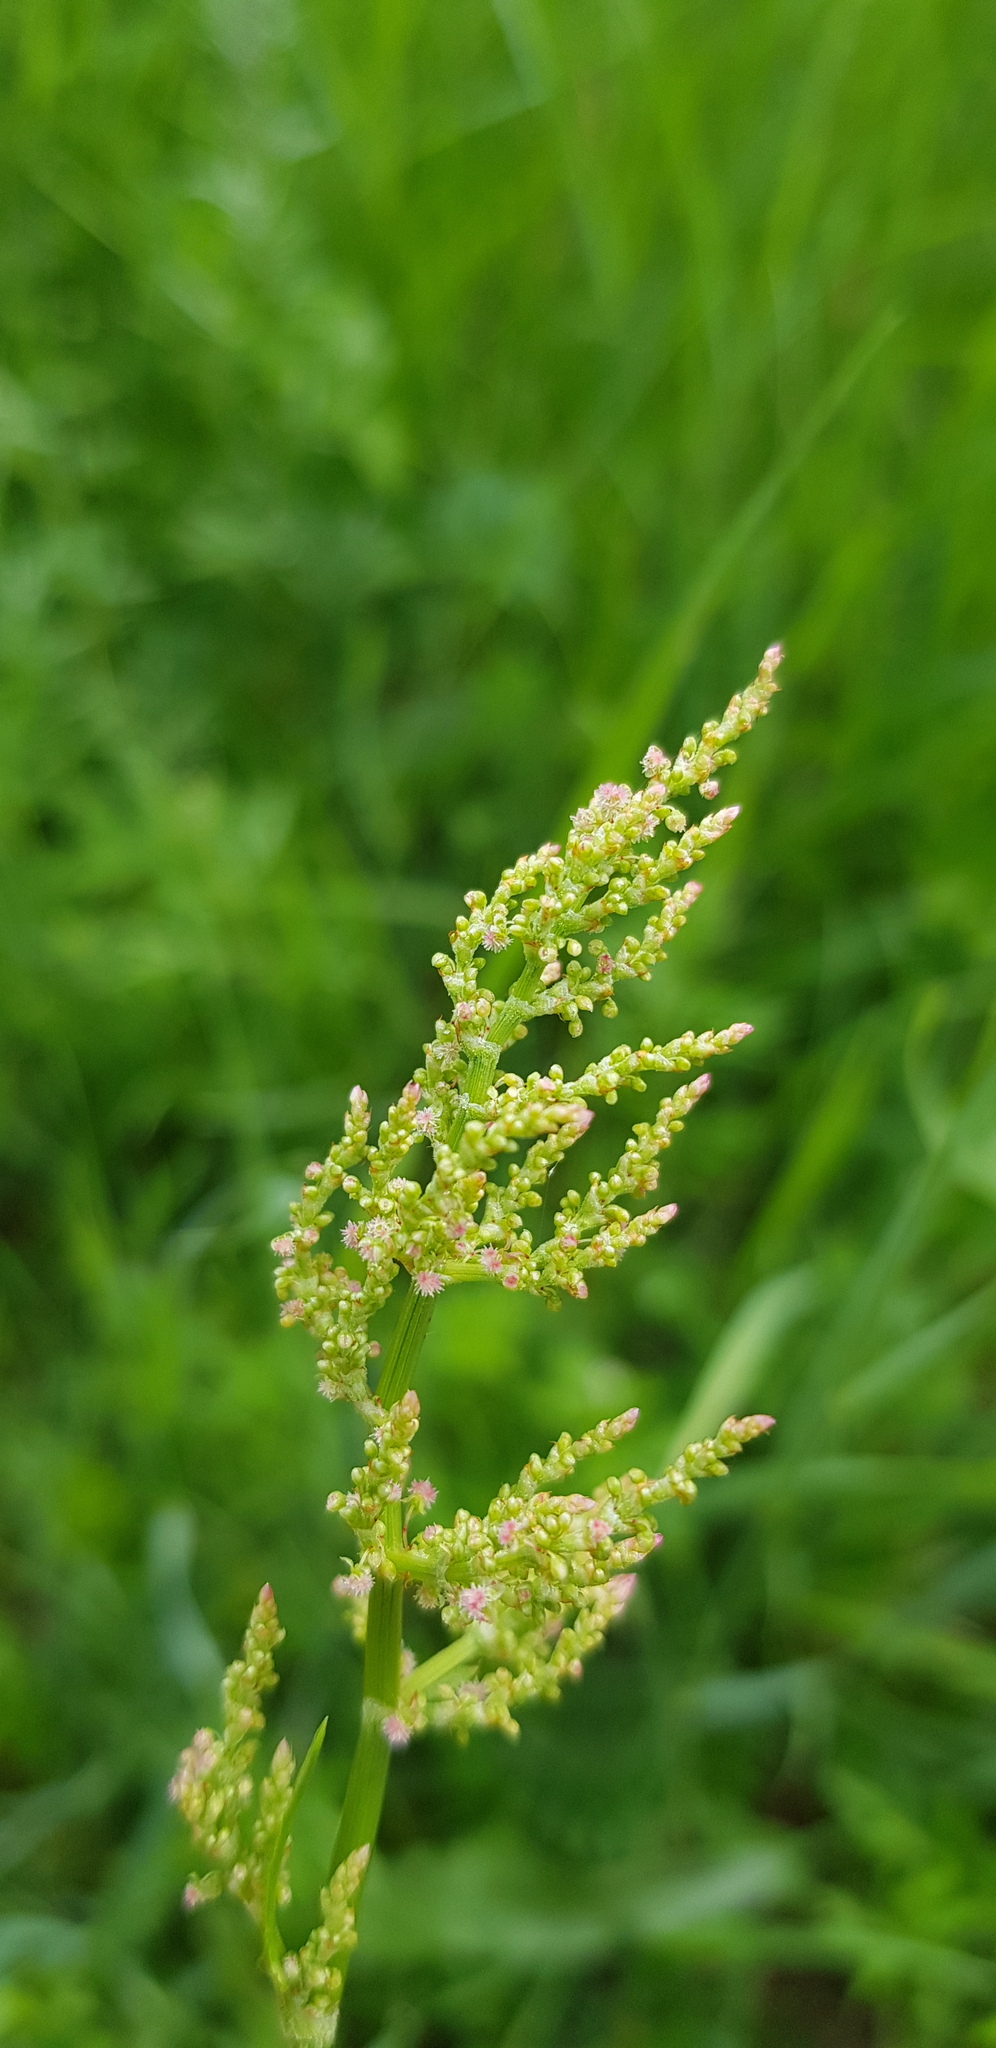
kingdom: Plantae
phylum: Tracheophyta
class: Magnoliopsida
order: Caryophyllales
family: Polygonaceae
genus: Rumex
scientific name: Rumex thyrsiflorus
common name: Garden sorrel
